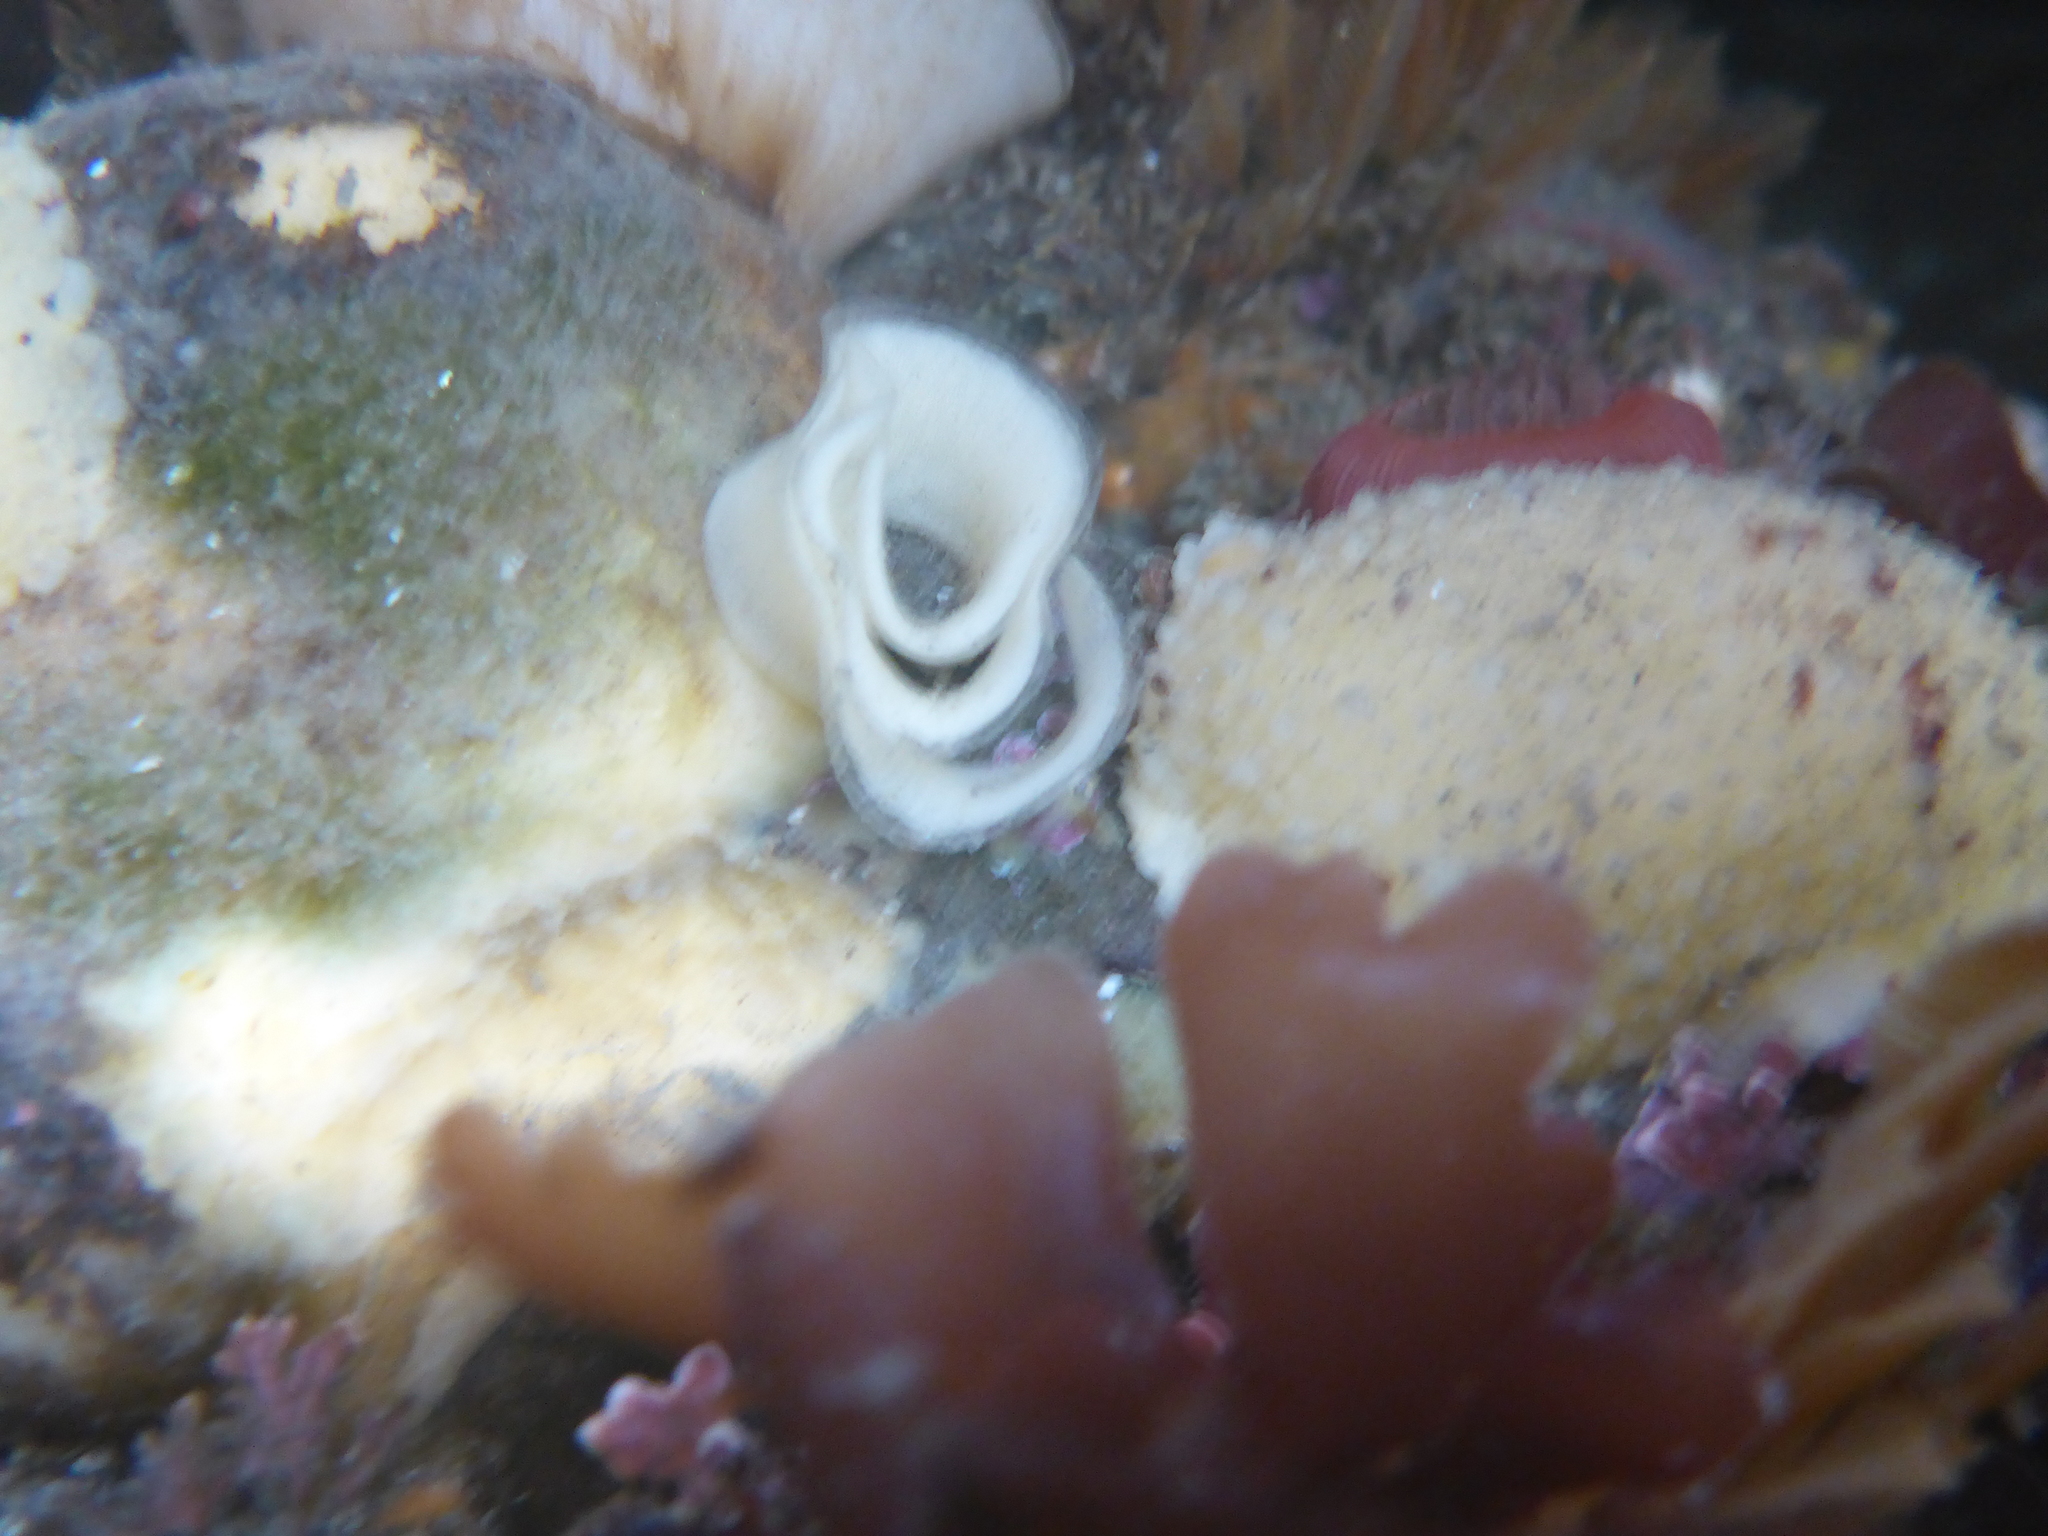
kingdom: Animalia
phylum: Mollusca
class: Gastropoda
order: Nudibranchia
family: Dorididae
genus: Doris
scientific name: Doris montereyensis
